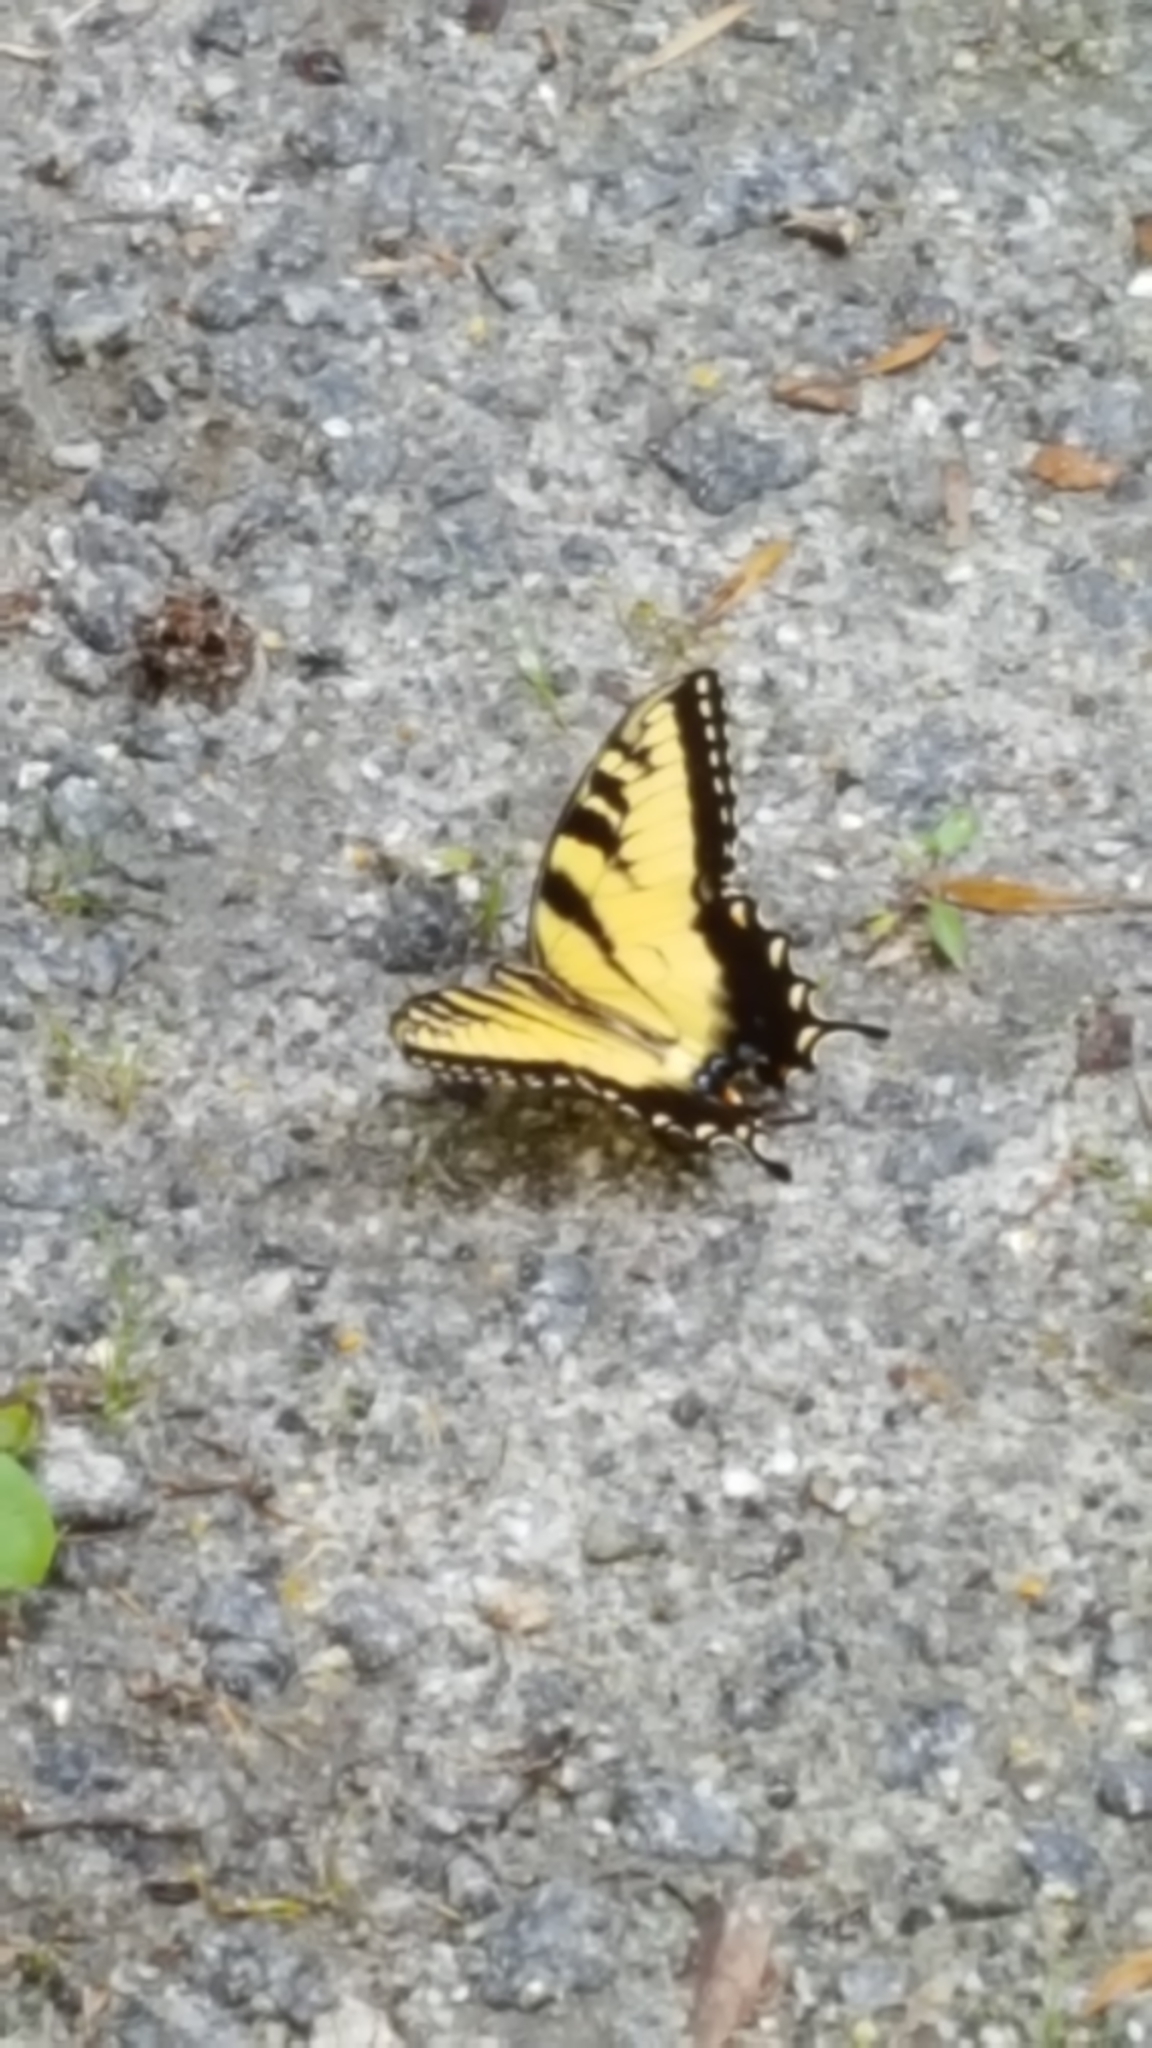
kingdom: Animalia
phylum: Arthropoda
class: Insecta
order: Lepidoptera
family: Papilionidae
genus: Papilio
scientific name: Papilio glaucus
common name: Tiger swallowtail
